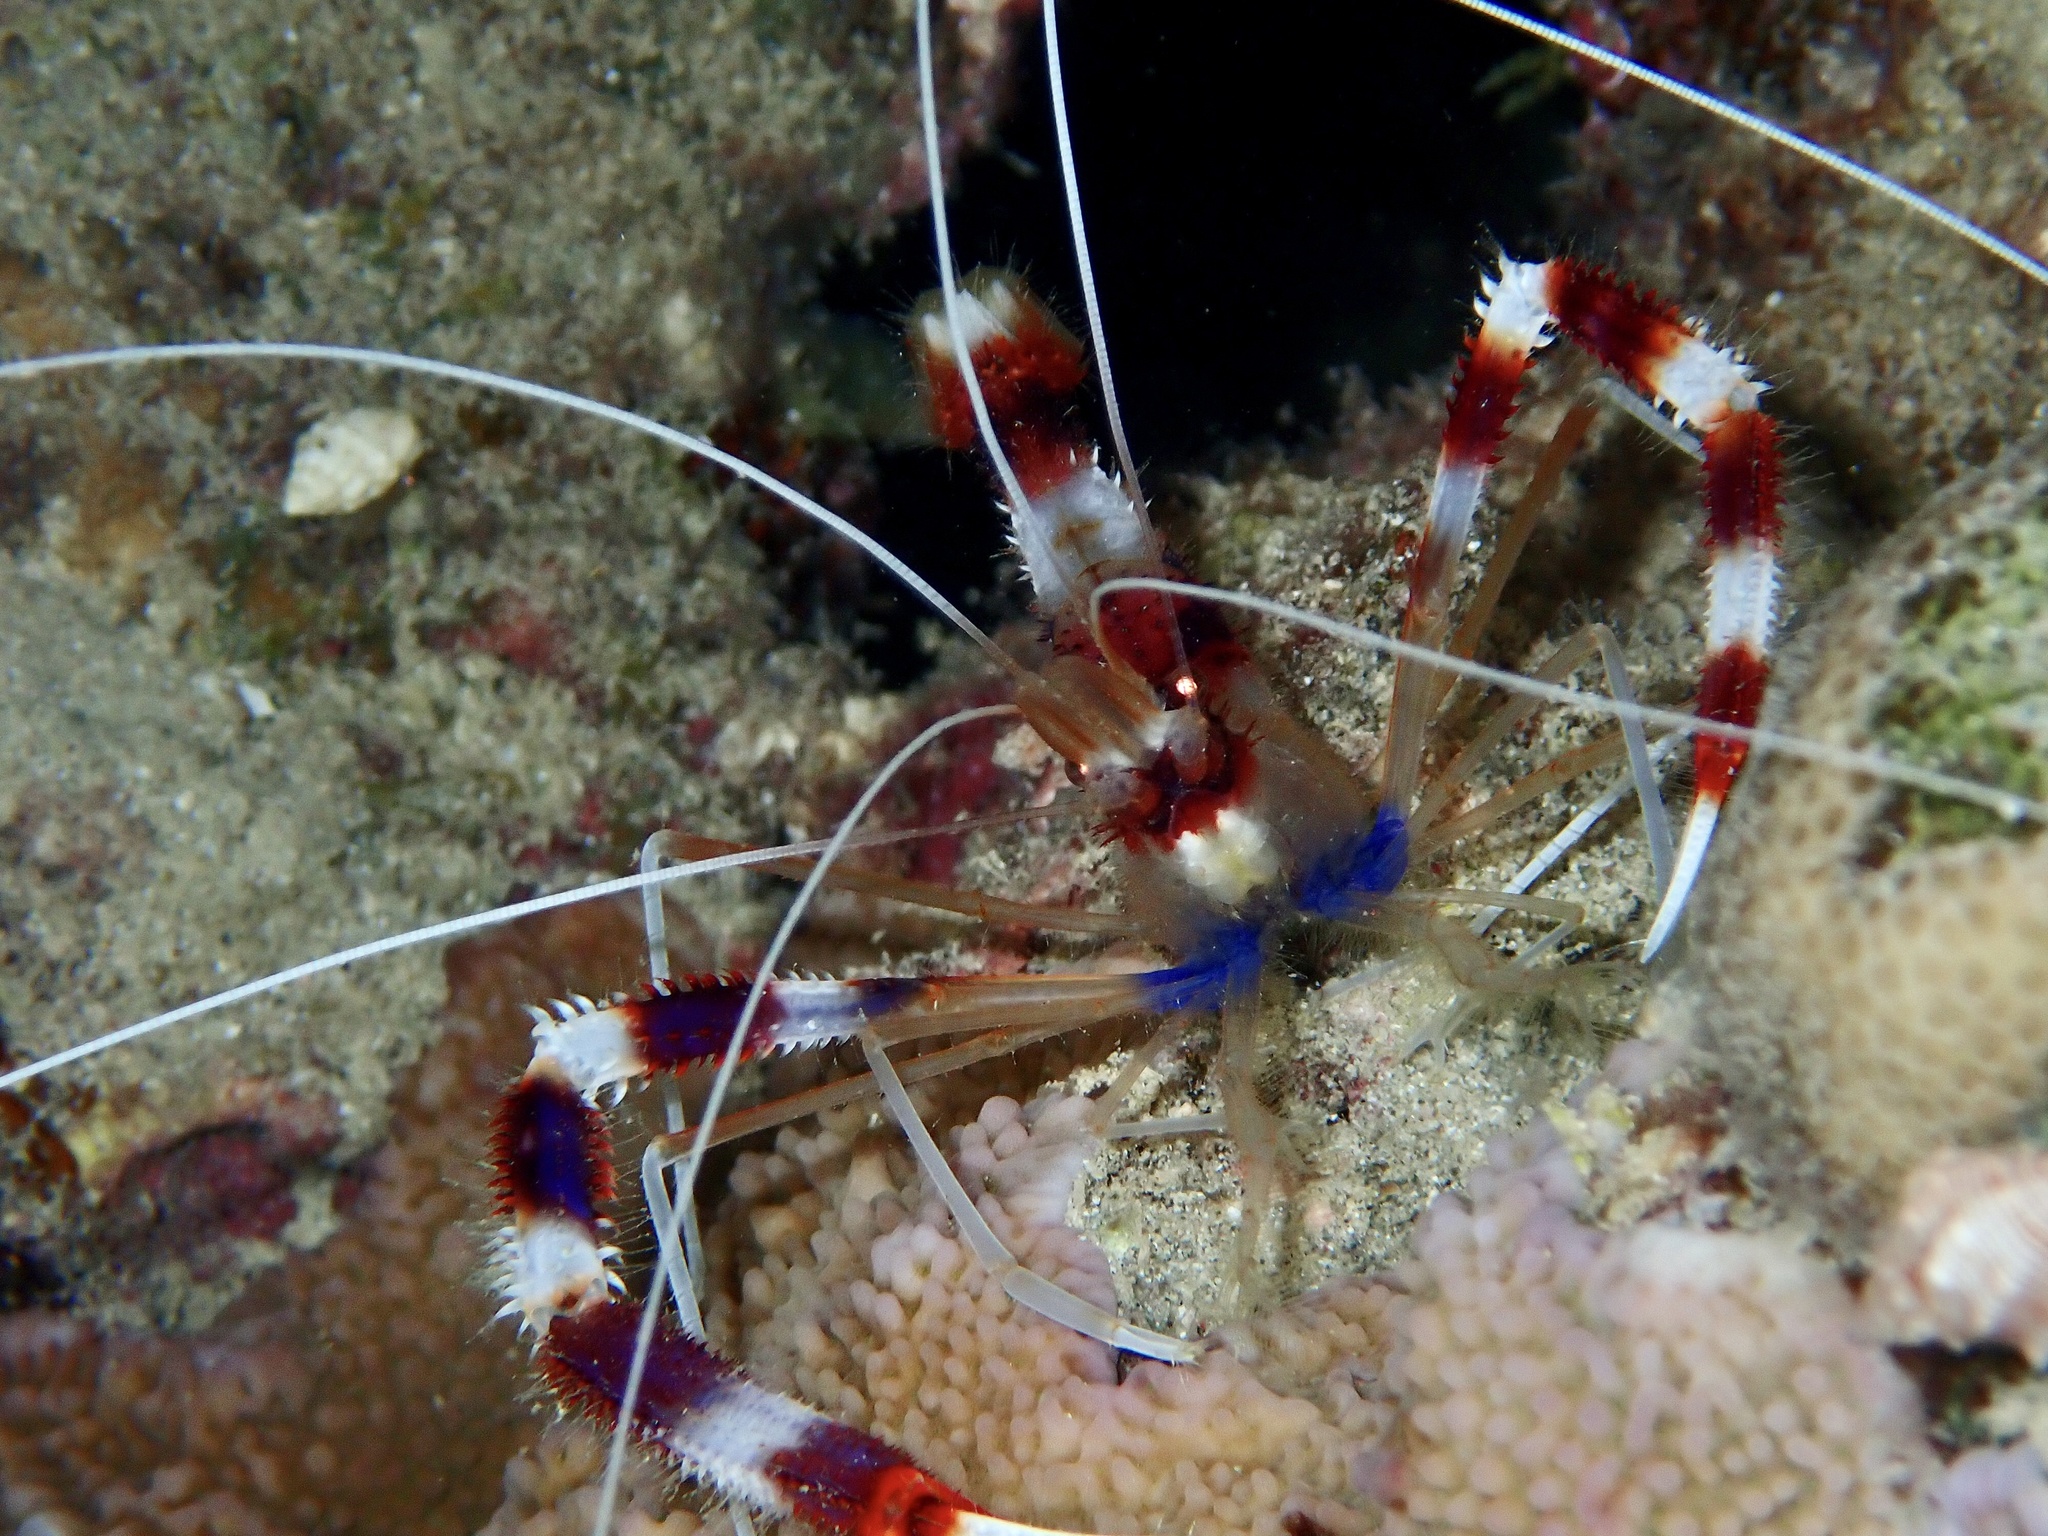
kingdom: Animalia
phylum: Arthropoda
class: Malacostraca
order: Decapoda
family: Stenopodidae
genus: Stenopus
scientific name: Stenopus hispidus
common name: Banded coral shrimp
